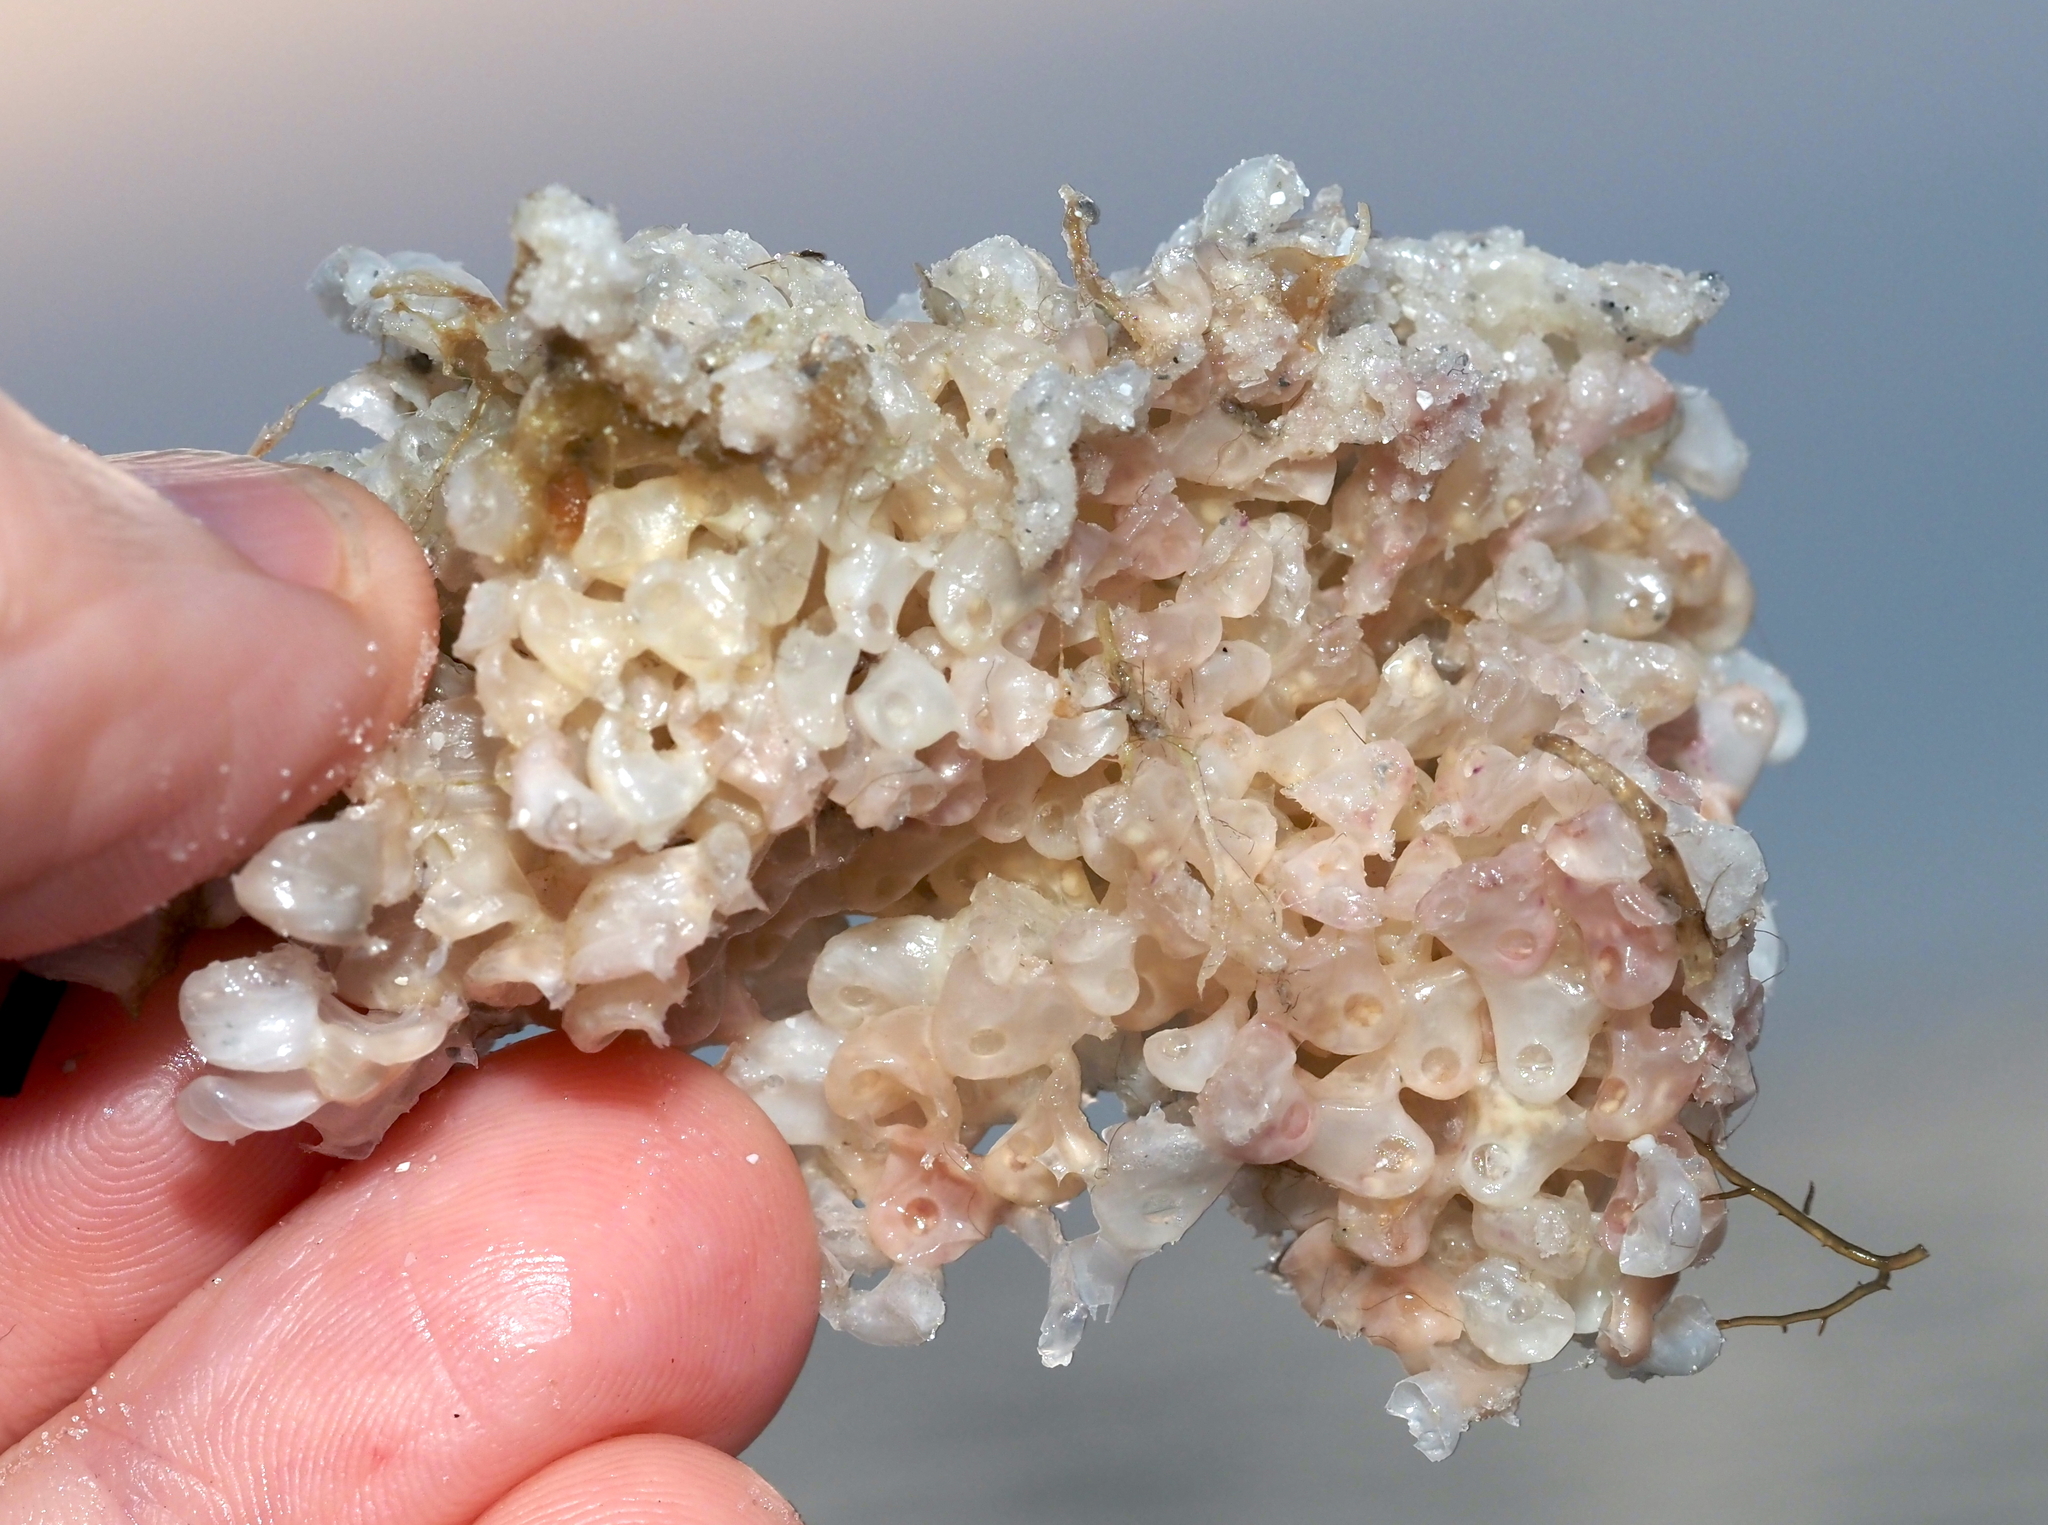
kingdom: Animalia
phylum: Mollusca
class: Gastropoda
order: Neogastropoda
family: Muricidae
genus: Phyllonotus
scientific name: Phyllonotus pomum
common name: Apple murex
